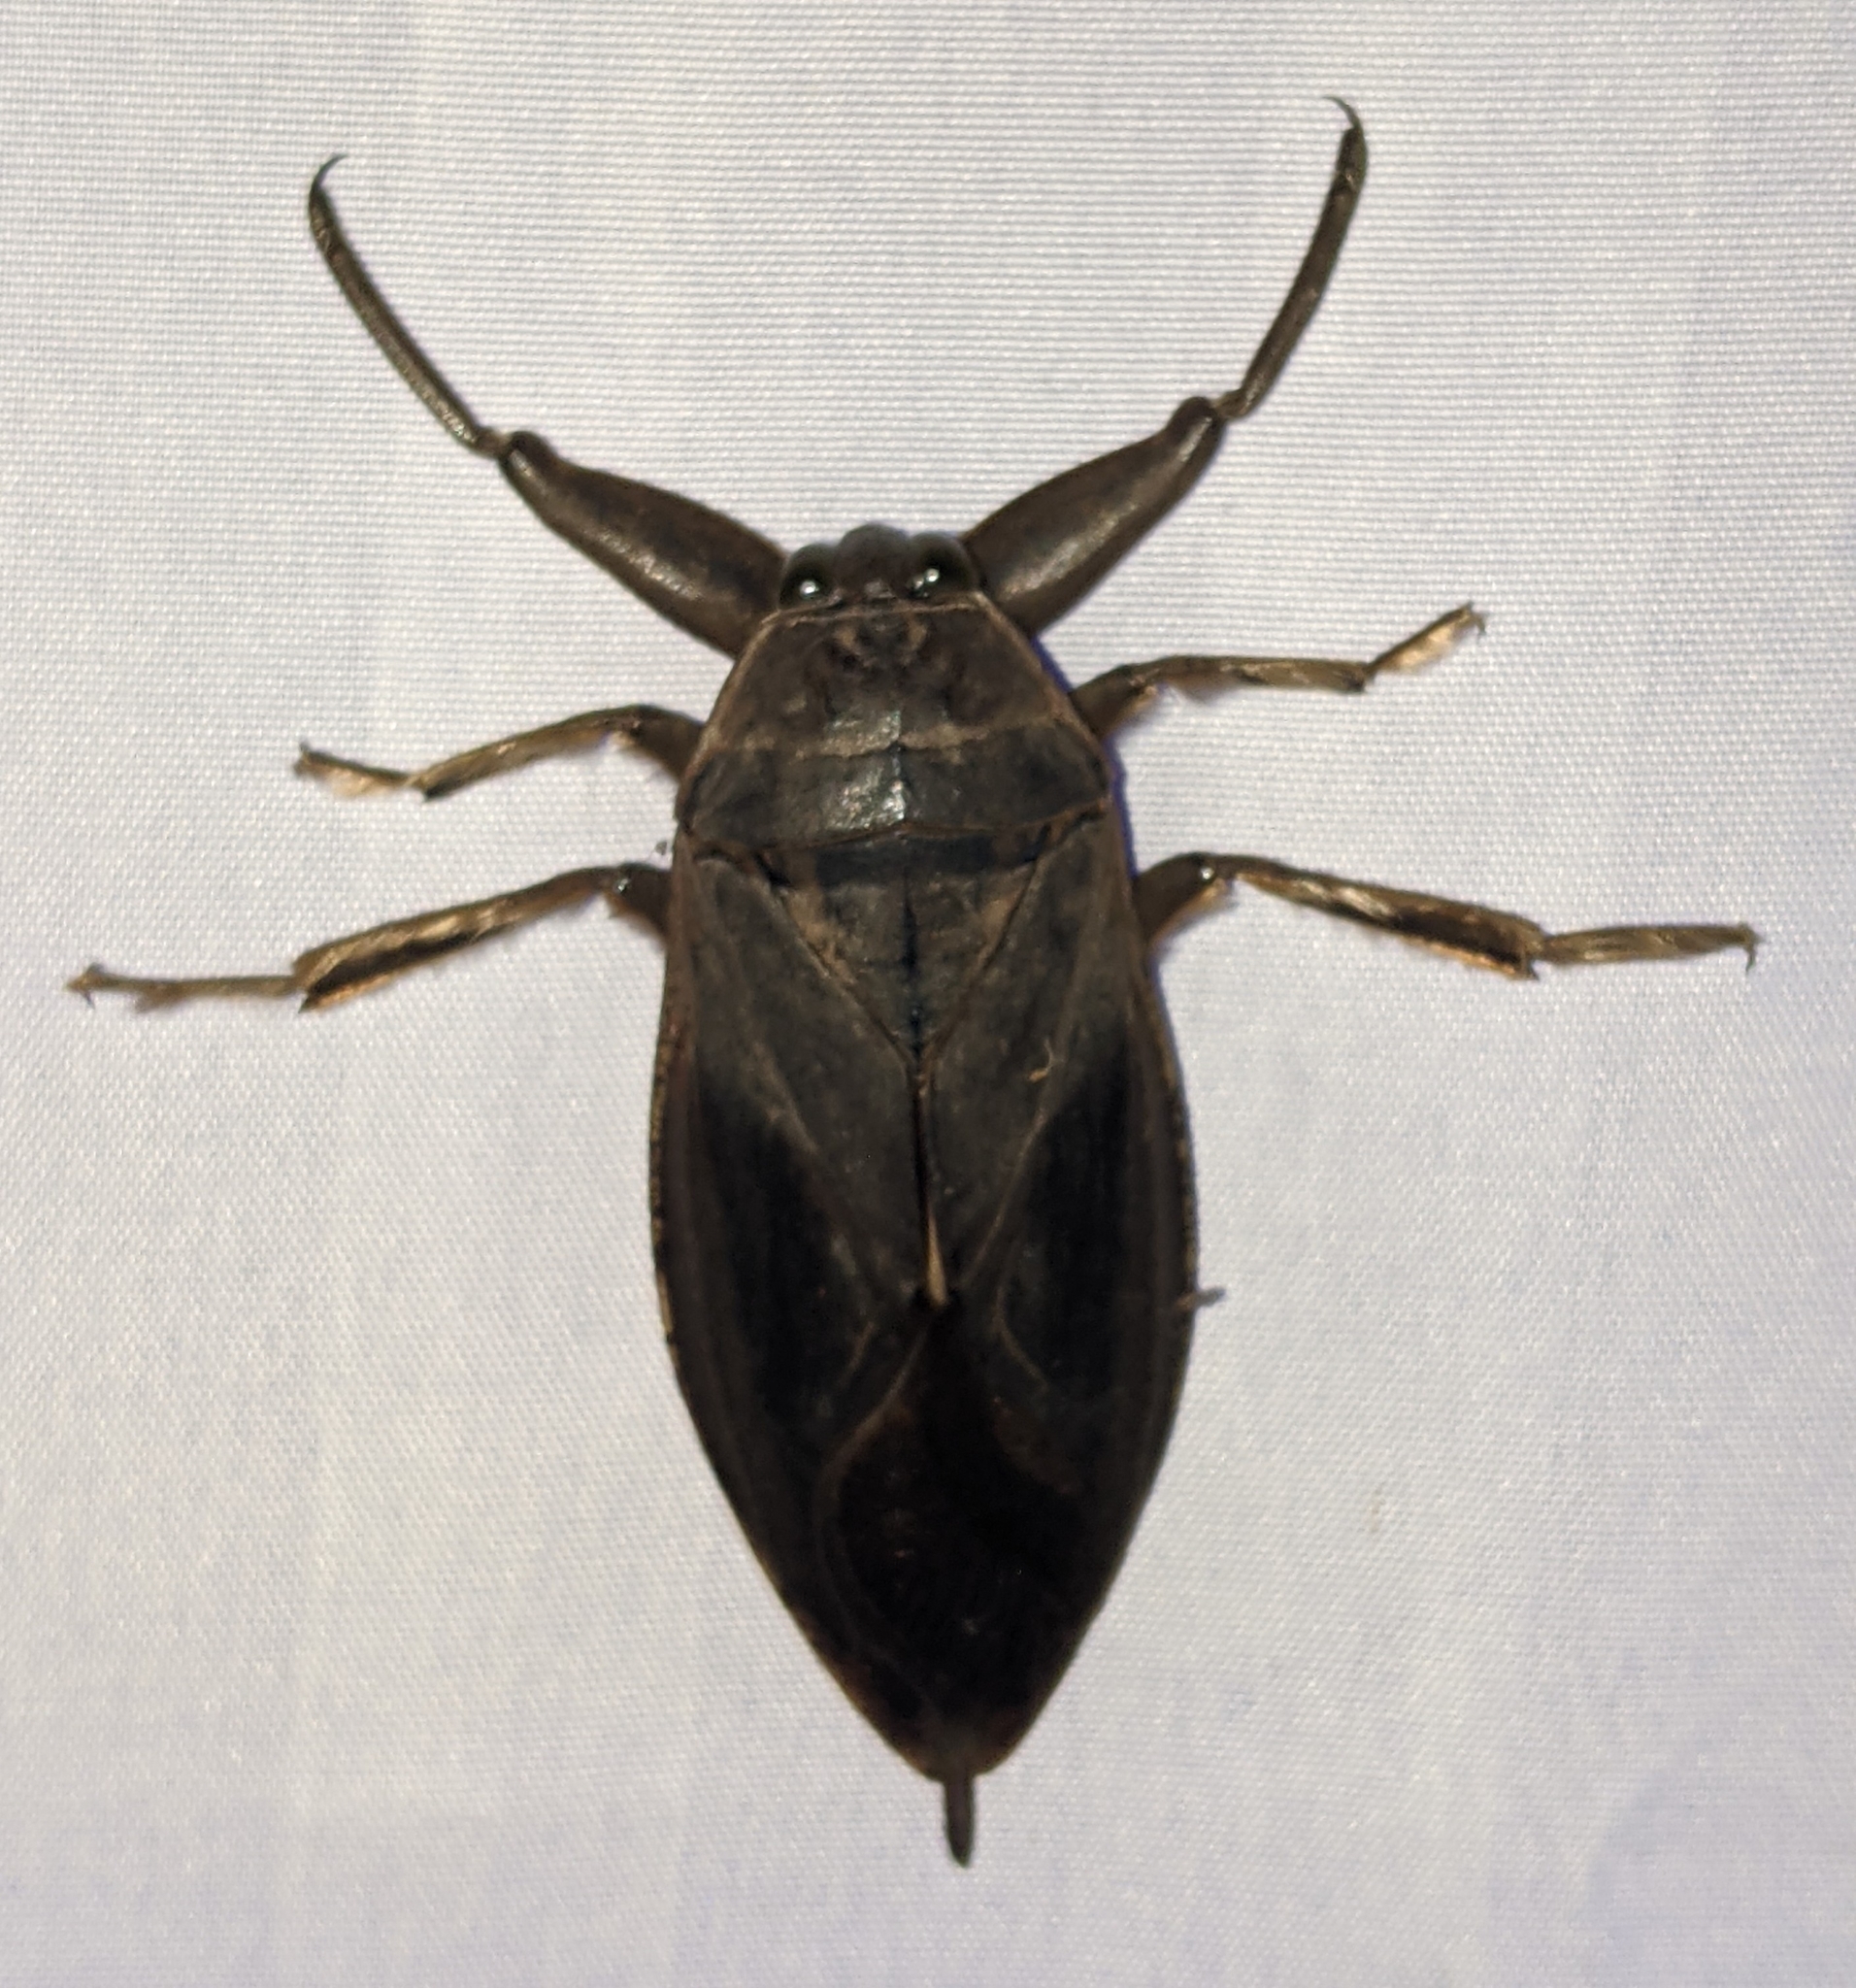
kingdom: Animalia
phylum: Arthropoda
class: Insecta
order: Hemiptera
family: Belostomatidae
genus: Lethocerus
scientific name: Lethocerus americanus
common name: Giant water bug
